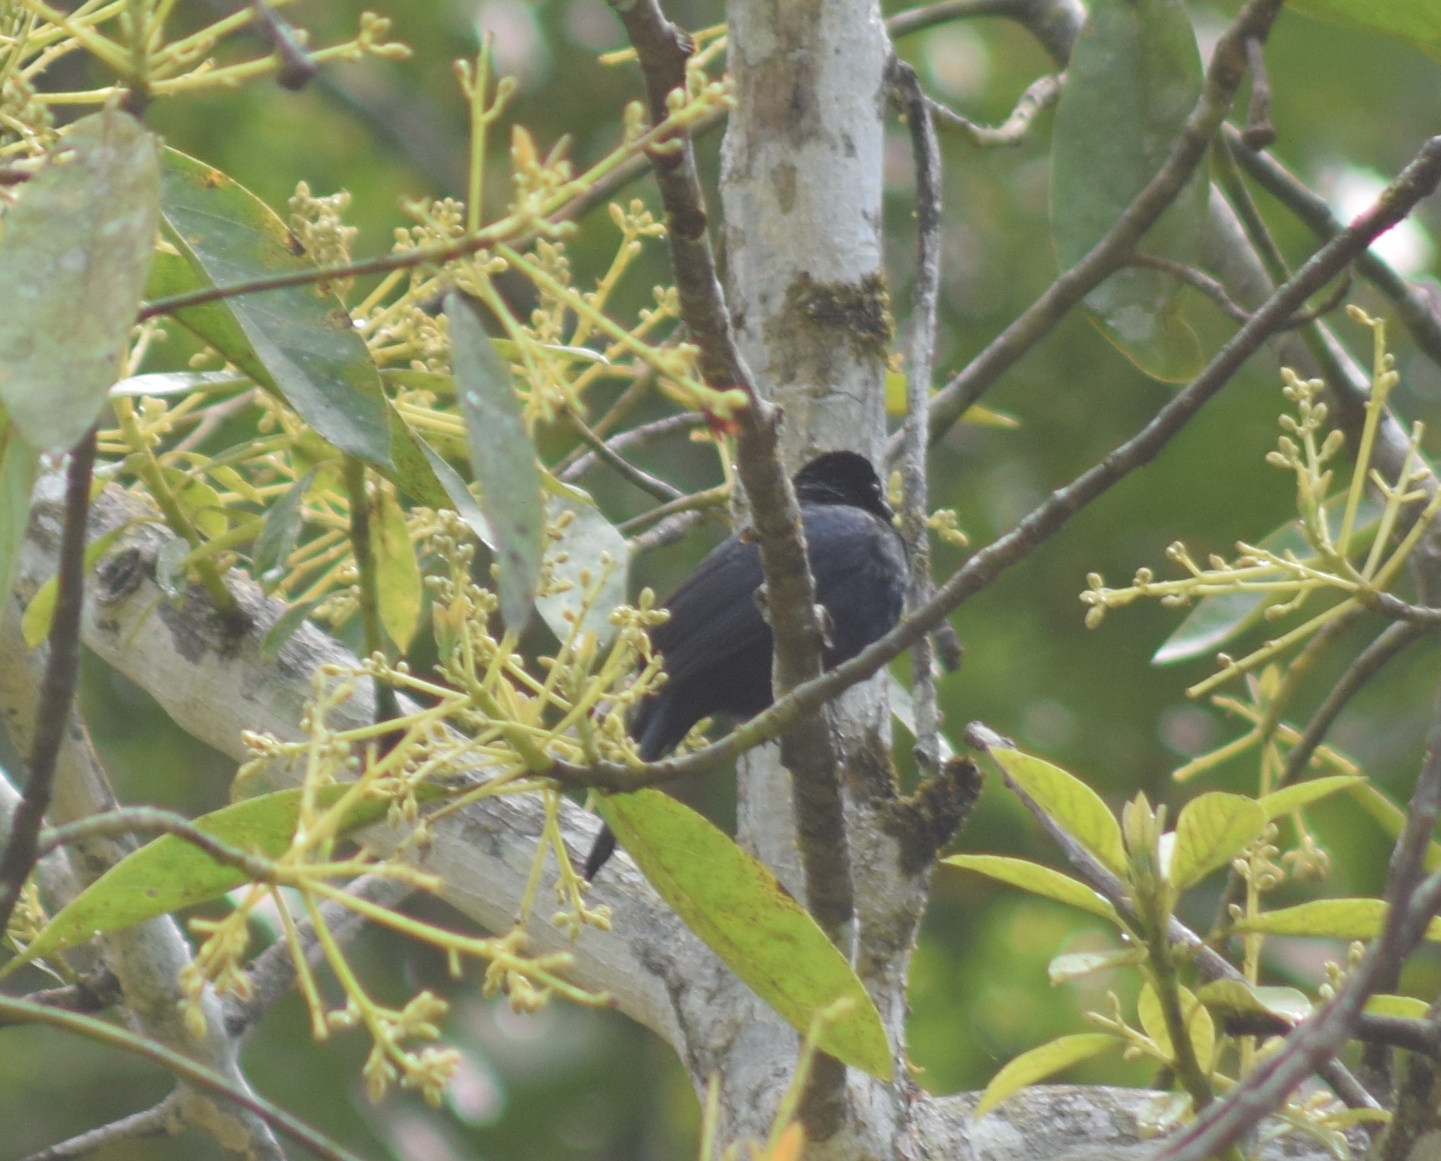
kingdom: Animalia
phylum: Chordata
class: Aves
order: Passeriformes
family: Thraupidae
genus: Tachyphonus
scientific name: Tachyphonus coronatus
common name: Ruby-crowned tanager
